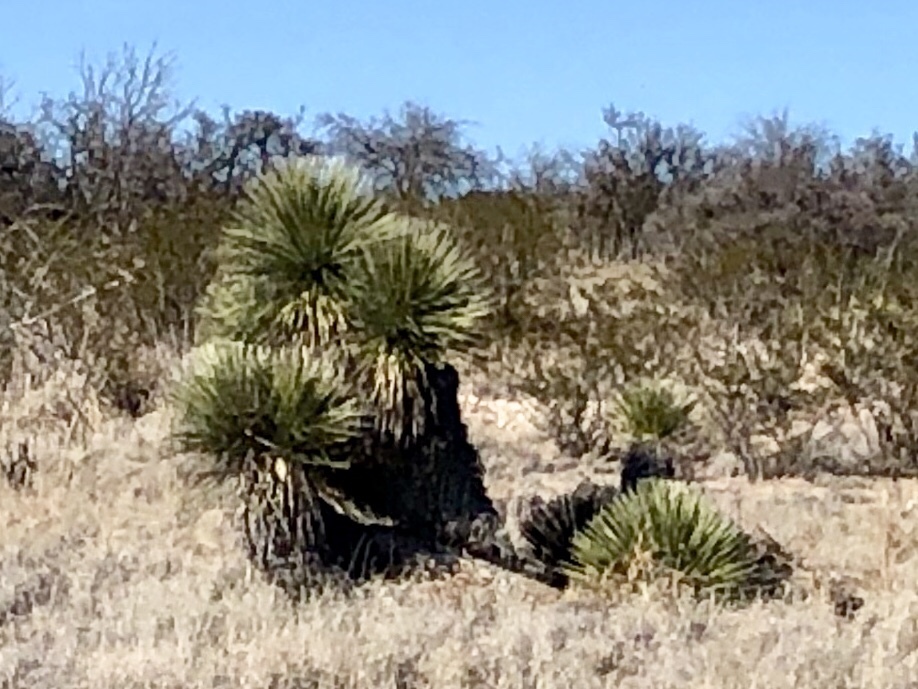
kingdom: Plantae
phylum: Tracheophyta
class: Liliopsida
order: Asparagales
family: Asparagaceae
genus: Yucca
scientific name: Yucca elata
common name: Palmella
